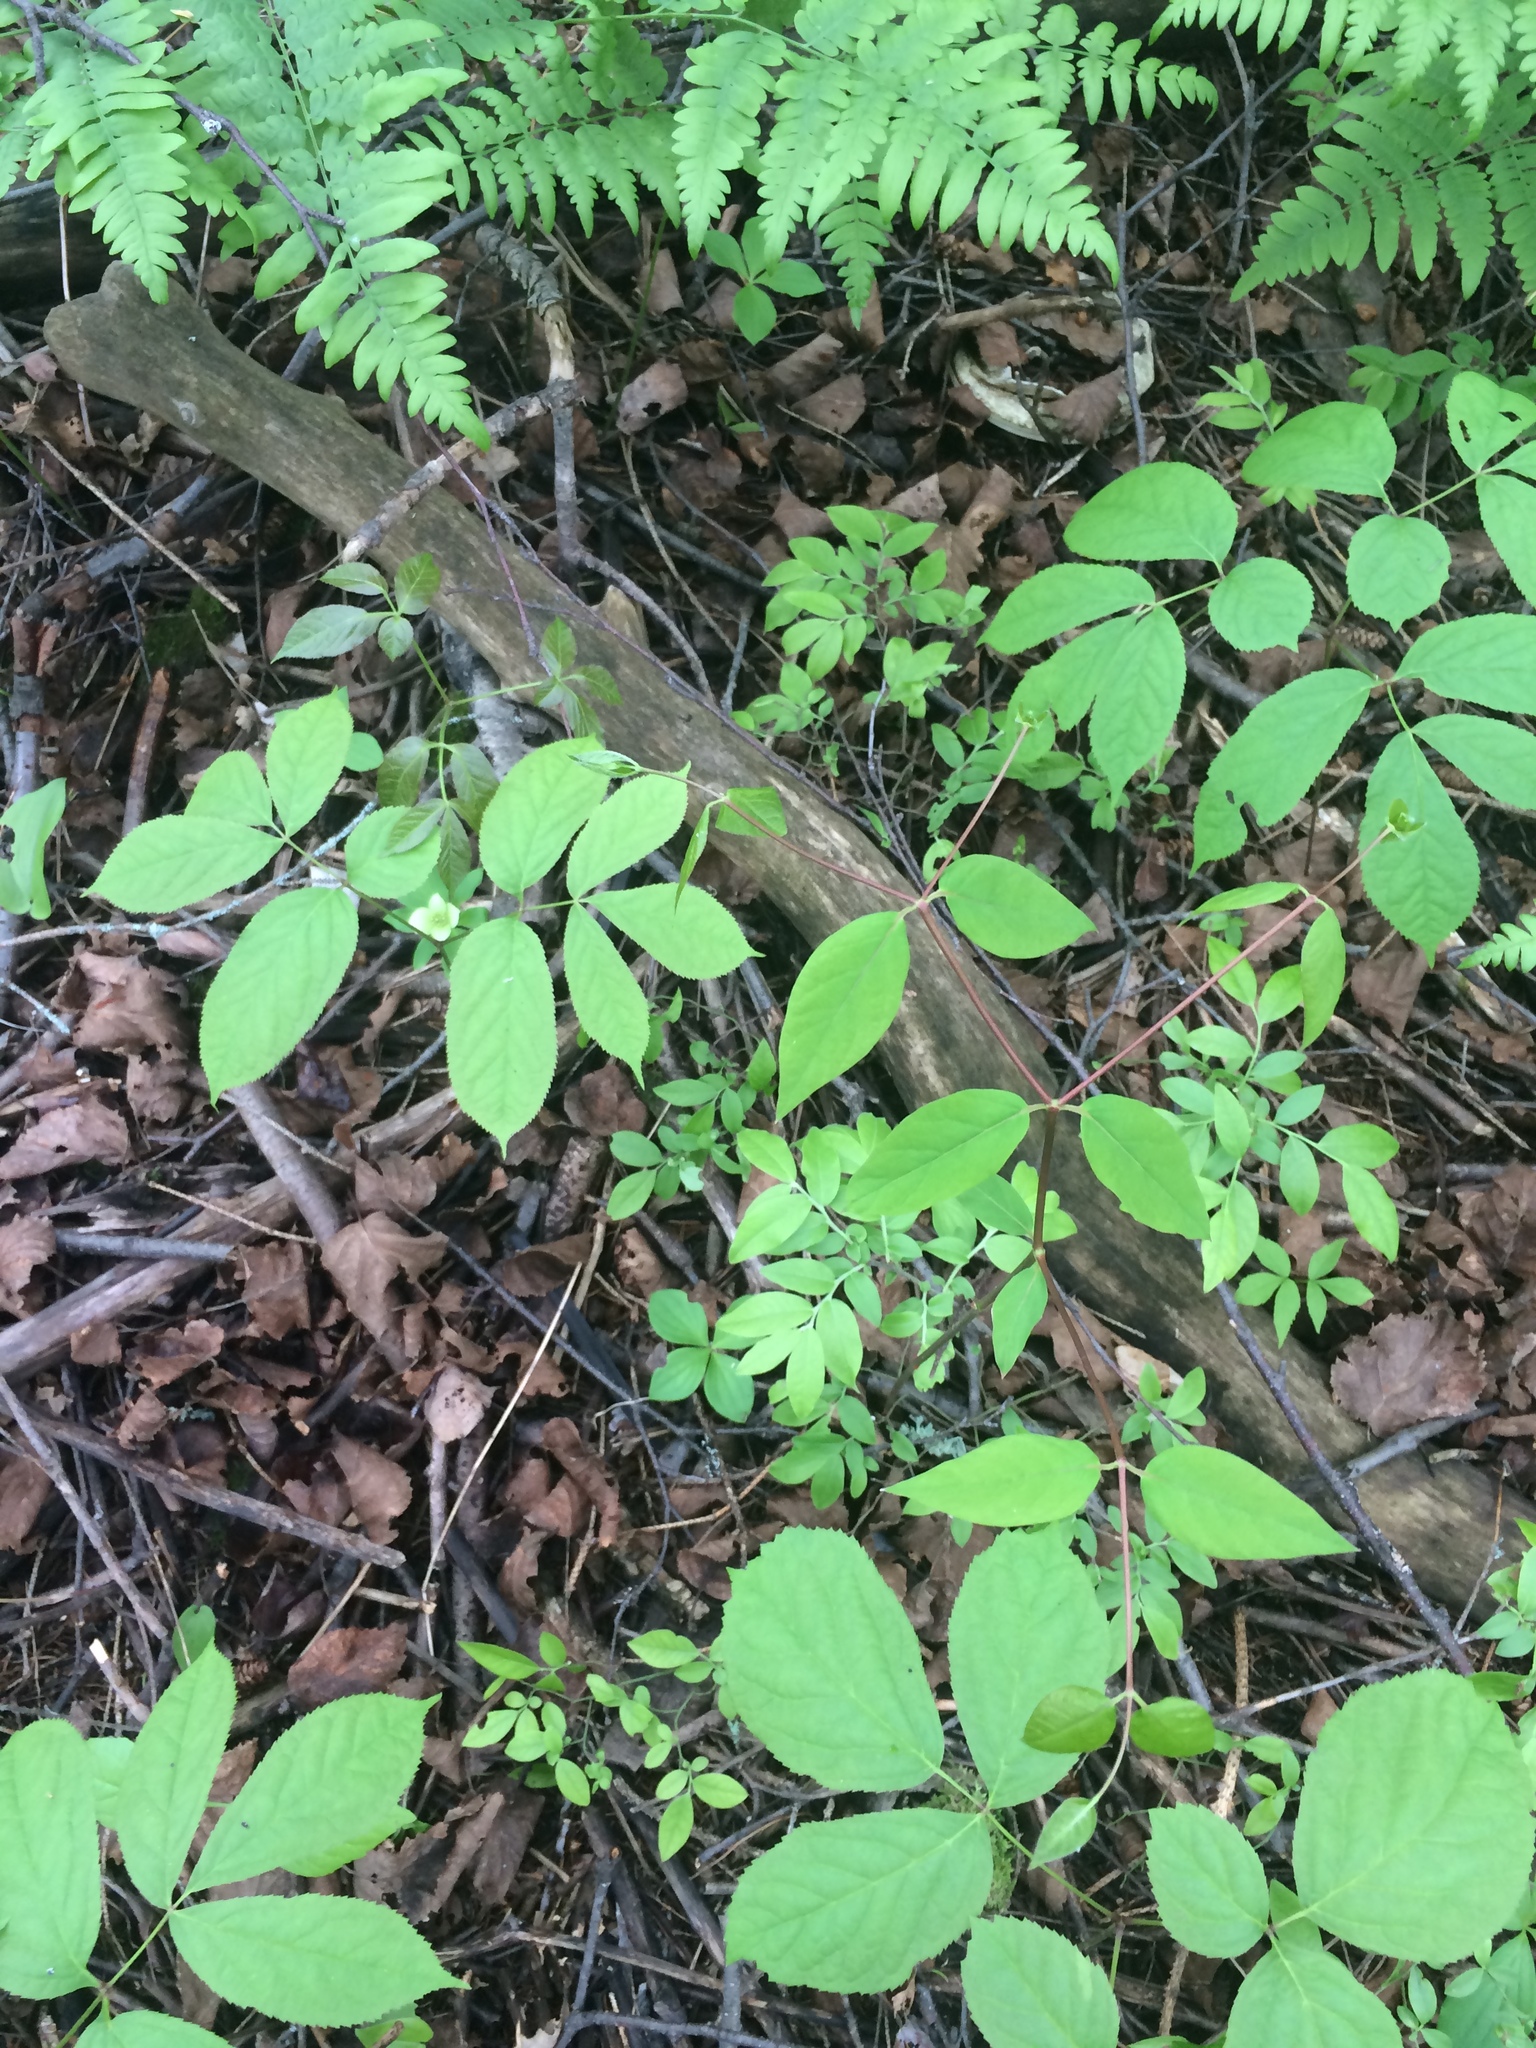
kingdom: Plantae
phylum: Tracheophyta
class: Magnoliopsida
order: Gentianales
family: Apocynaceae
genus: Apocynum
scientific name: Apocynum androsaemifolium
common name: Spreading dogbane
